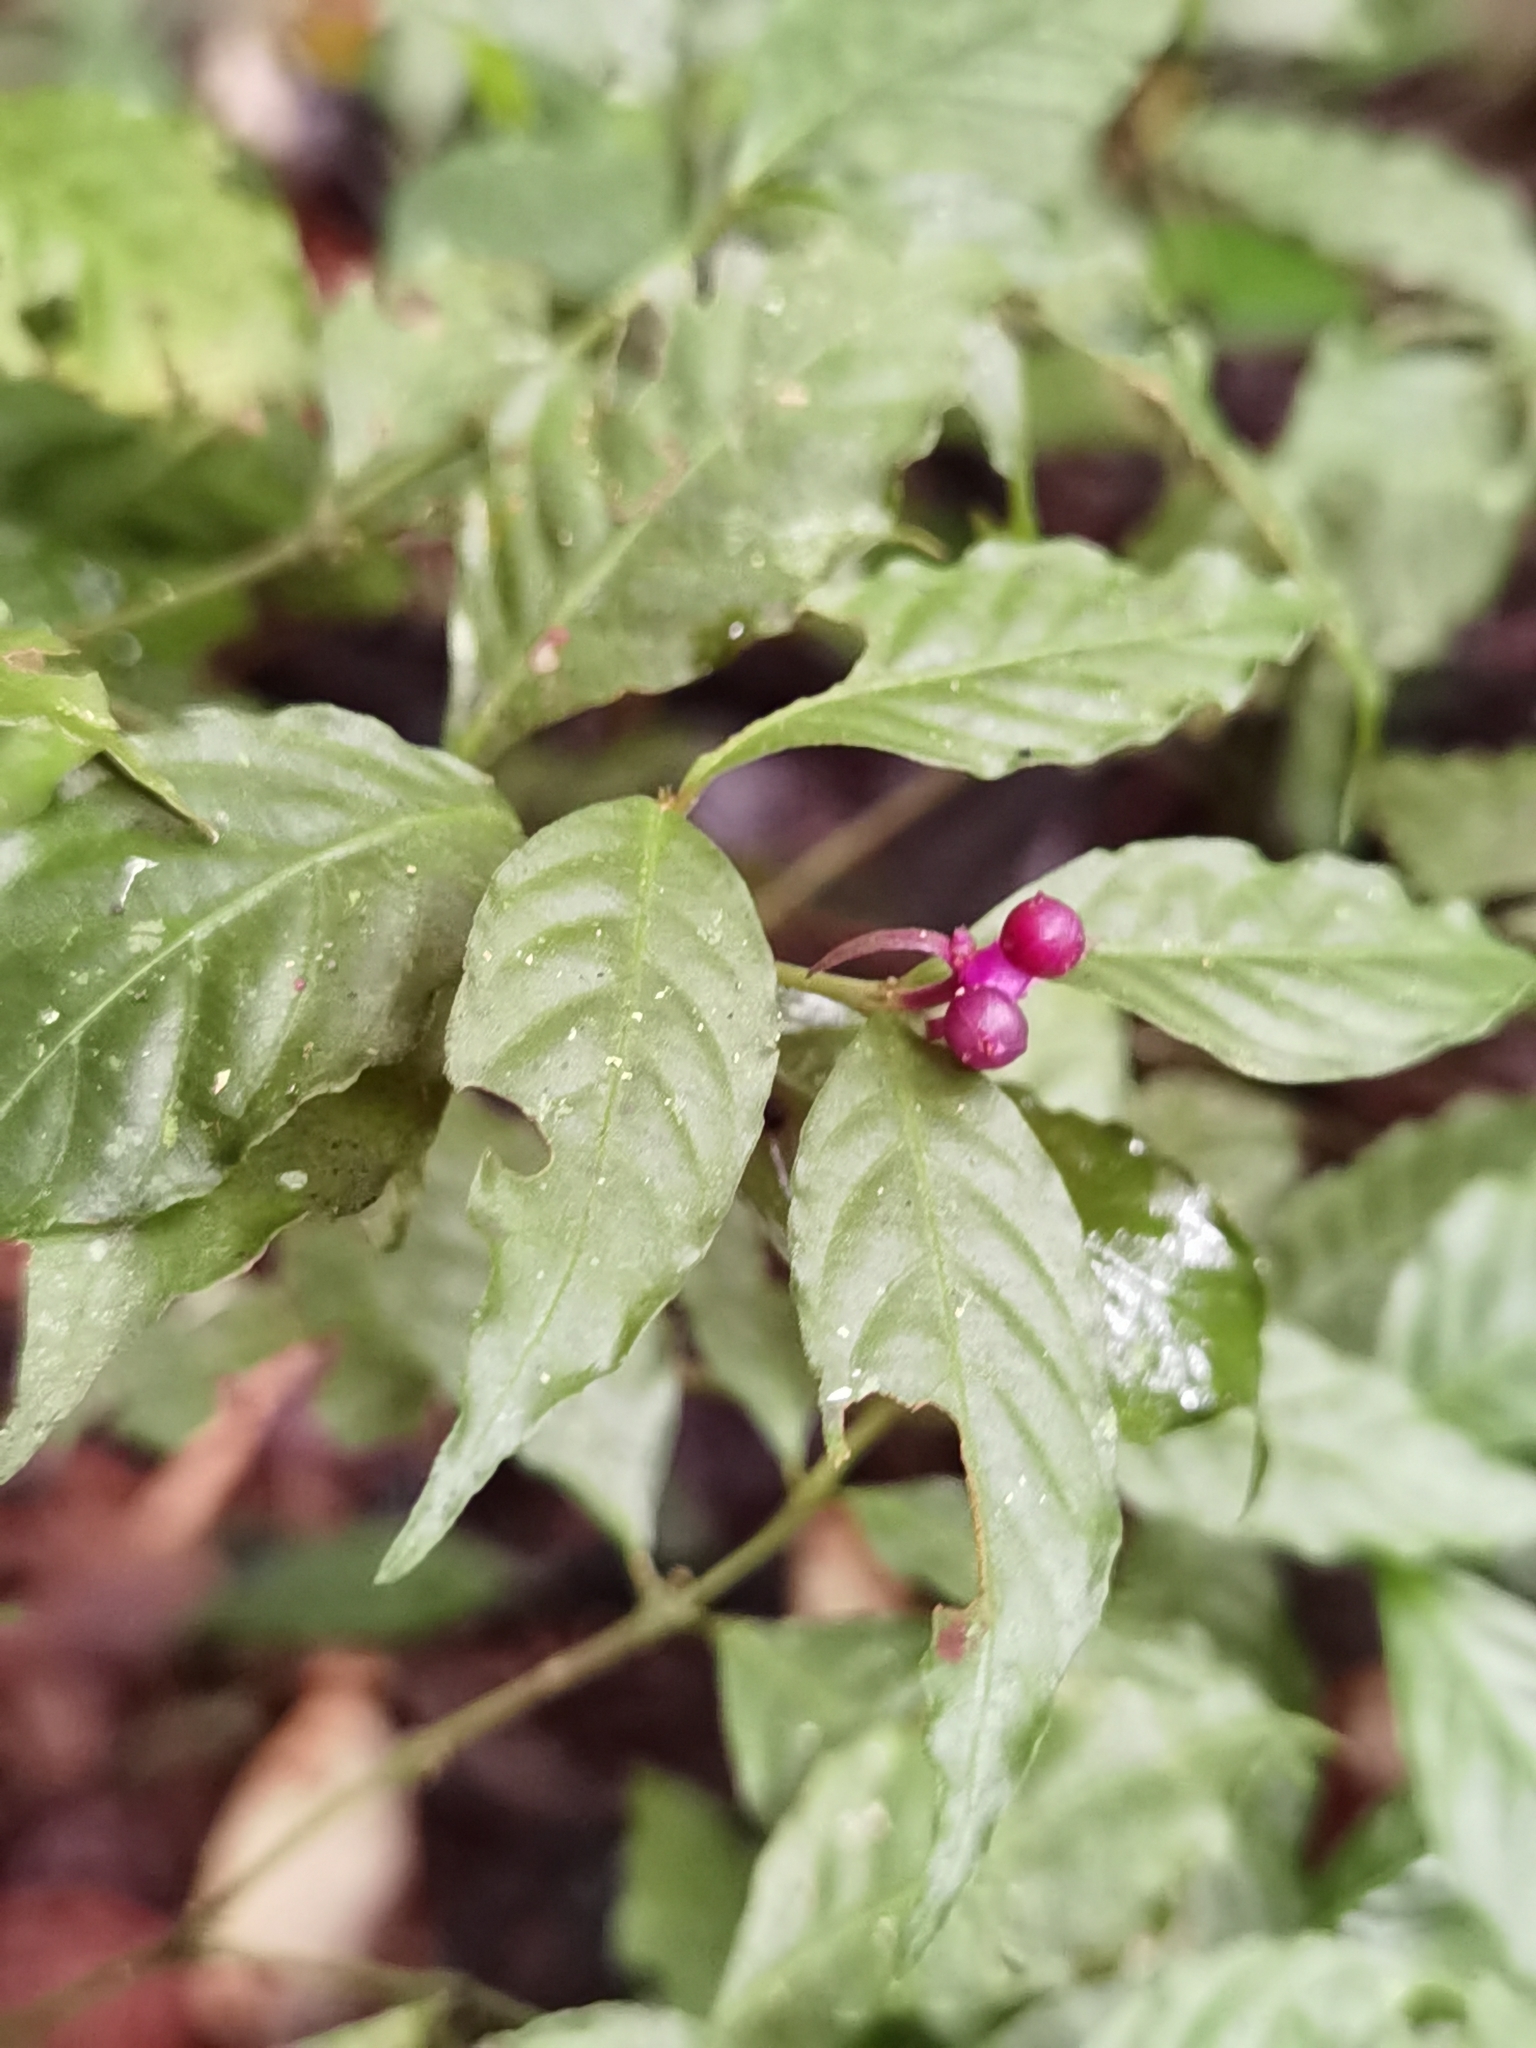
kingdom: Plantae
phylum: Tracheophyta
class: Magnoliopsida
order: Gentianales
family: Rubiaceae
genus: Palicourea
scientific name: Palicourea hoffmannseggiana
